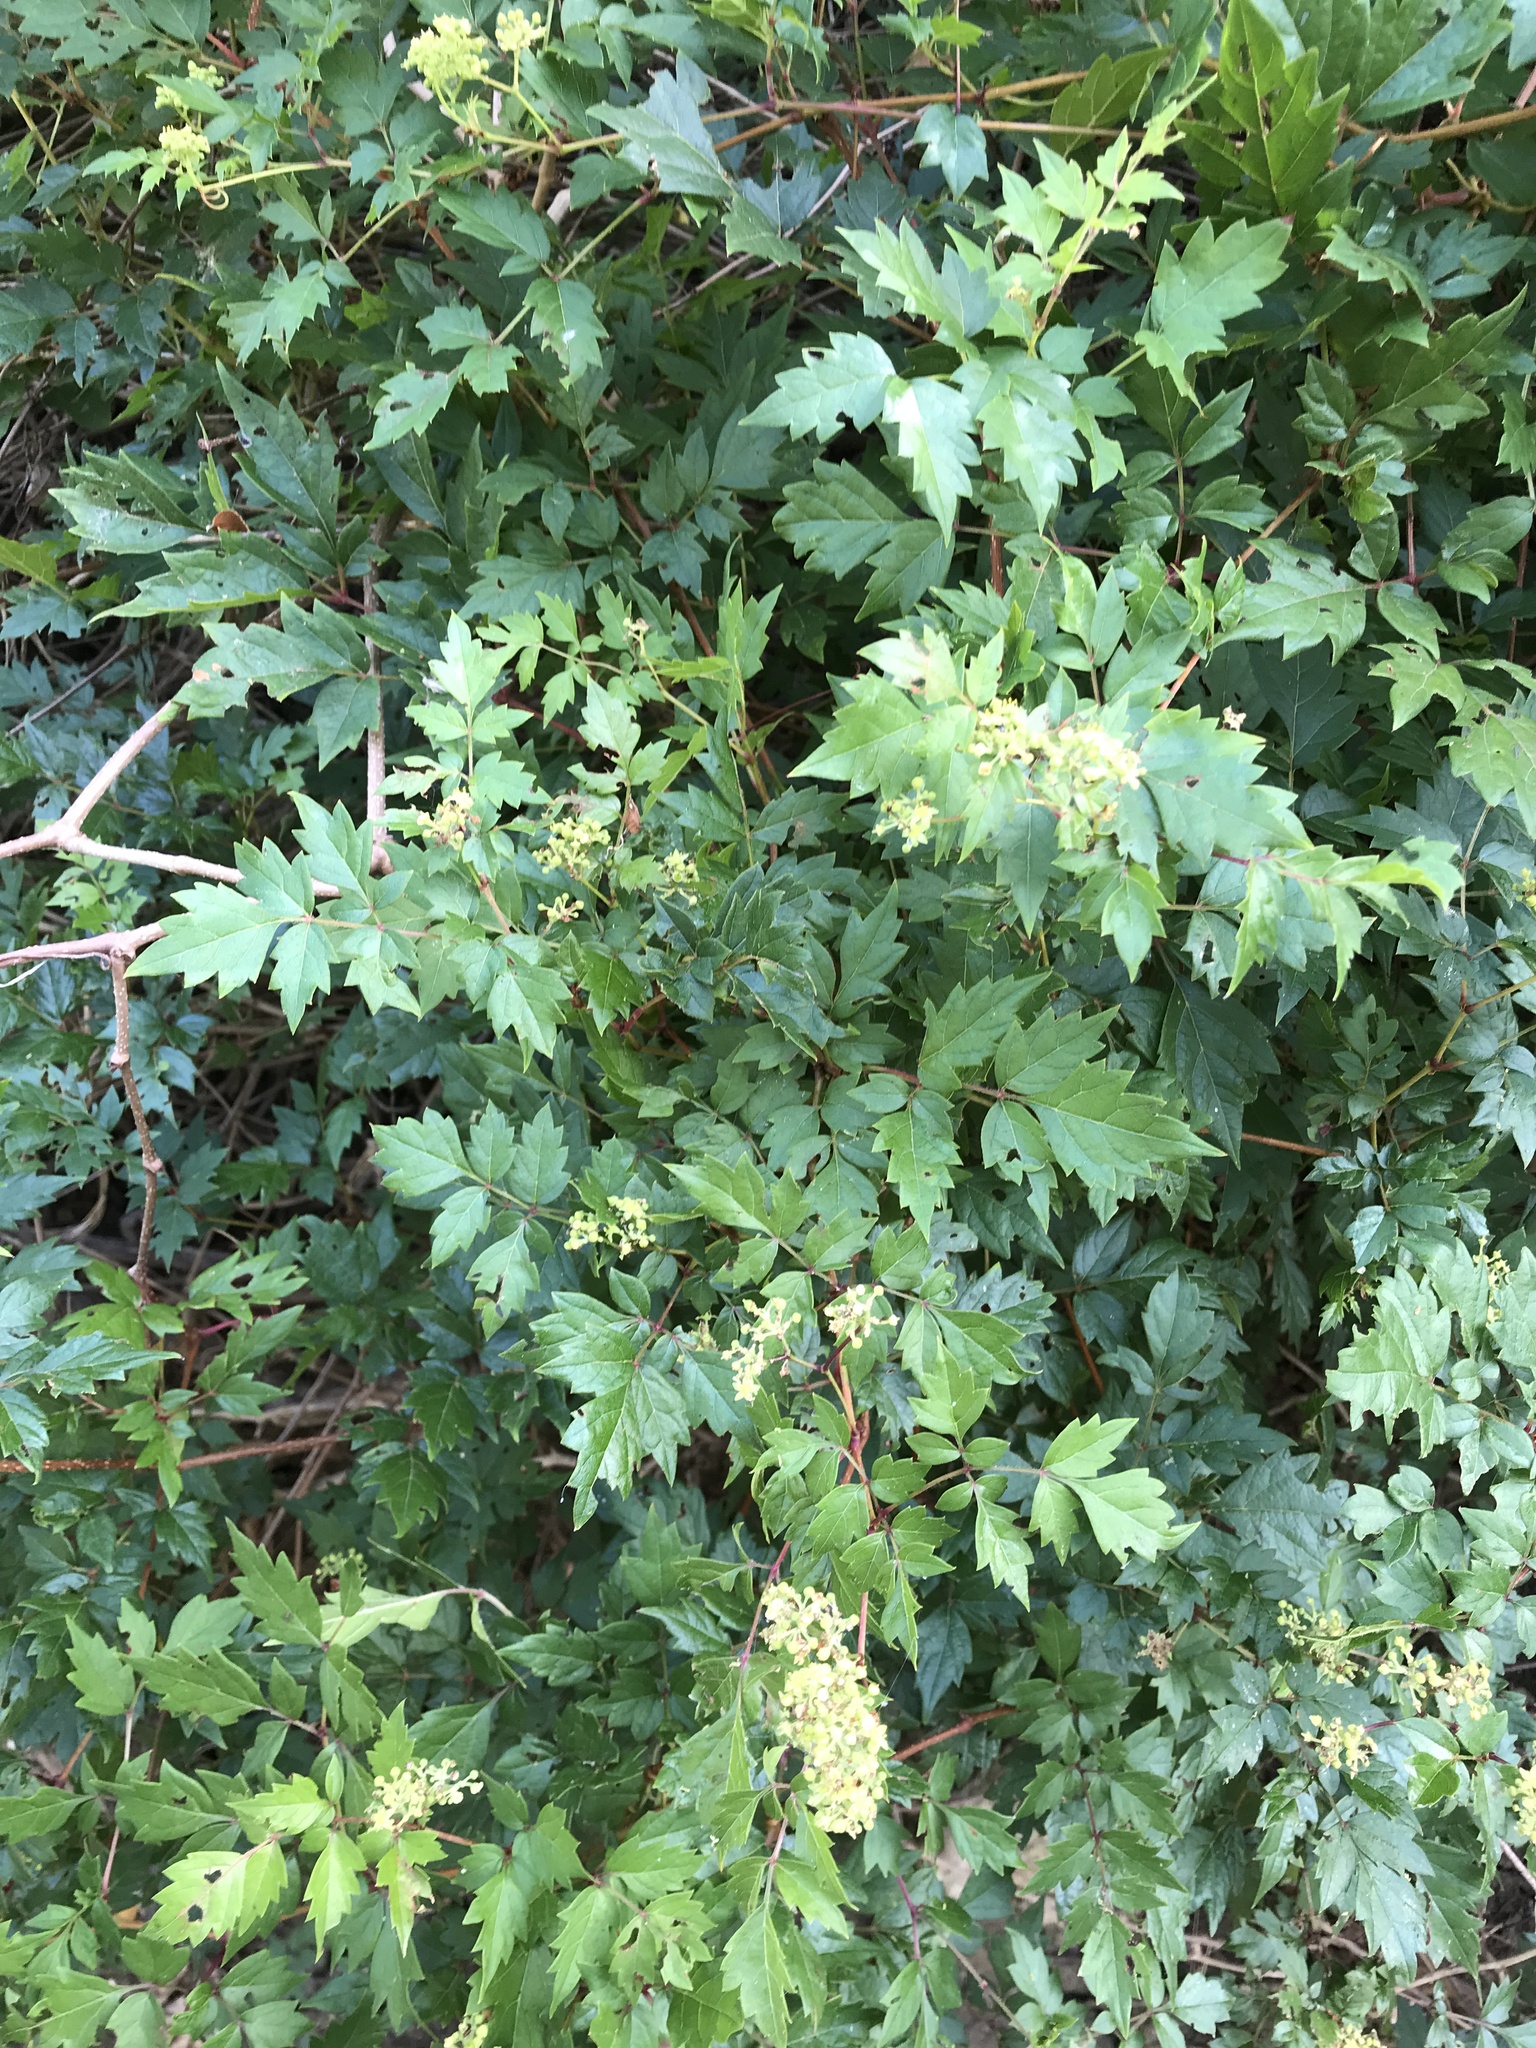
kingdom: Plantae
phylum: Tracheophyta
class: Magnoliopsida
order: Vitales
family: Vitaceae
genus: Nekemias
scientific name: Nekemias arborea
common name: Peppervine
